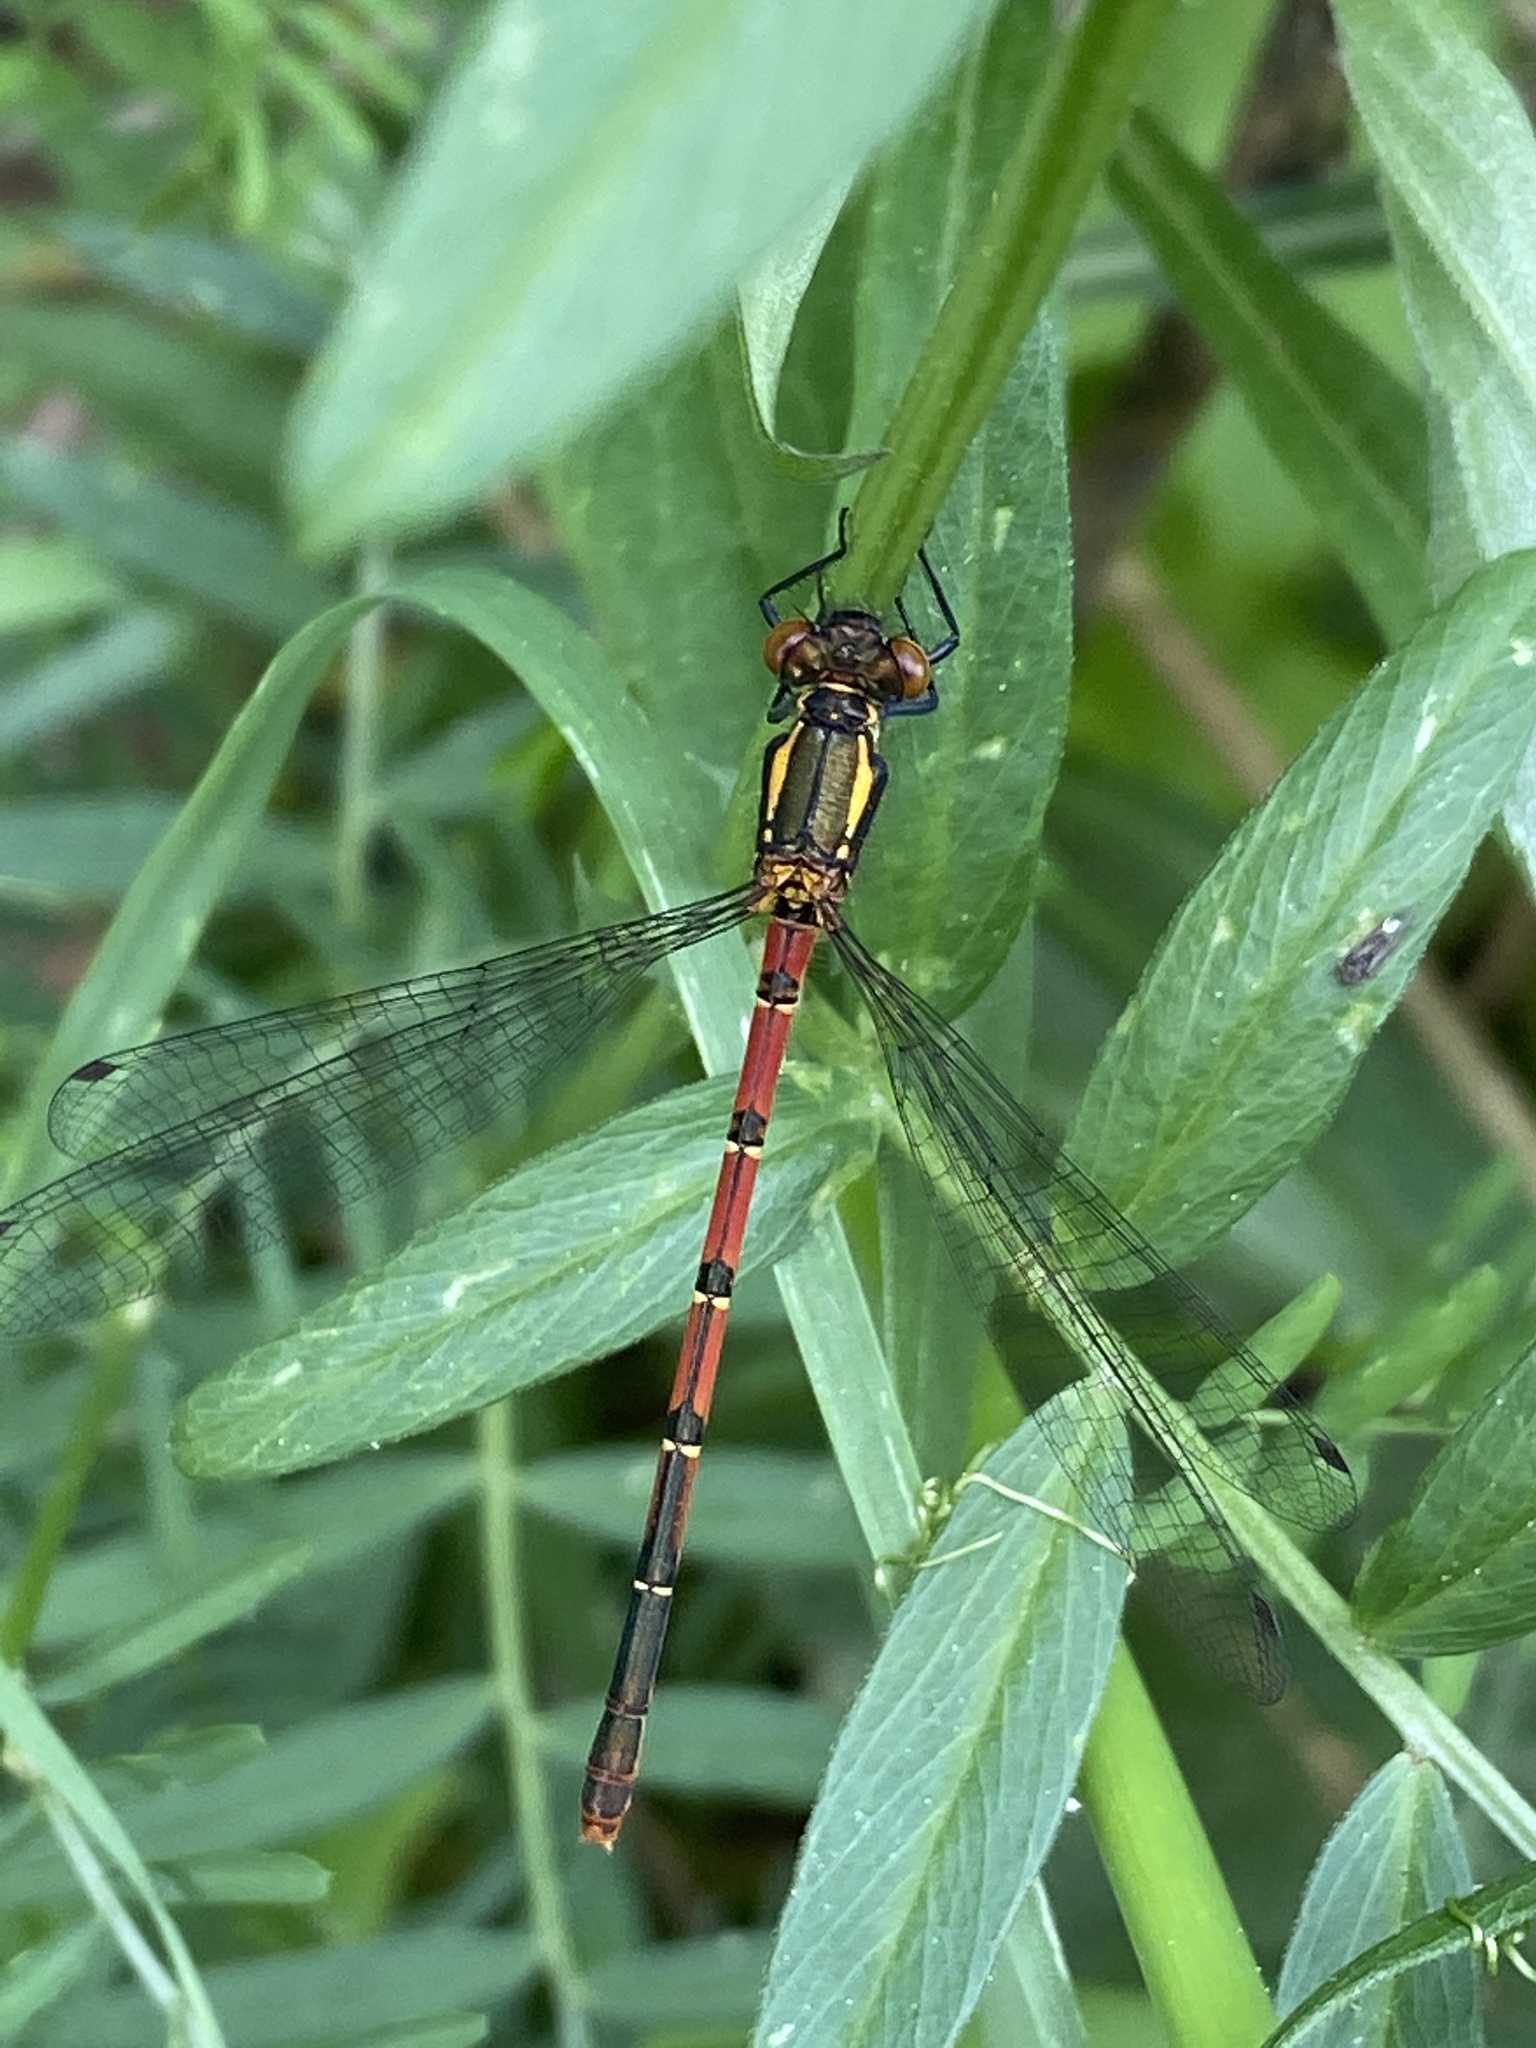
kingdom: Animalia
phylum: Arthropoda
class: Insecta
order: Odonata
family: Coenagrionidae
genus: Pyrrhosoma
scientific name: Pyrrhosoma nymphula
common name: Large red damsel
